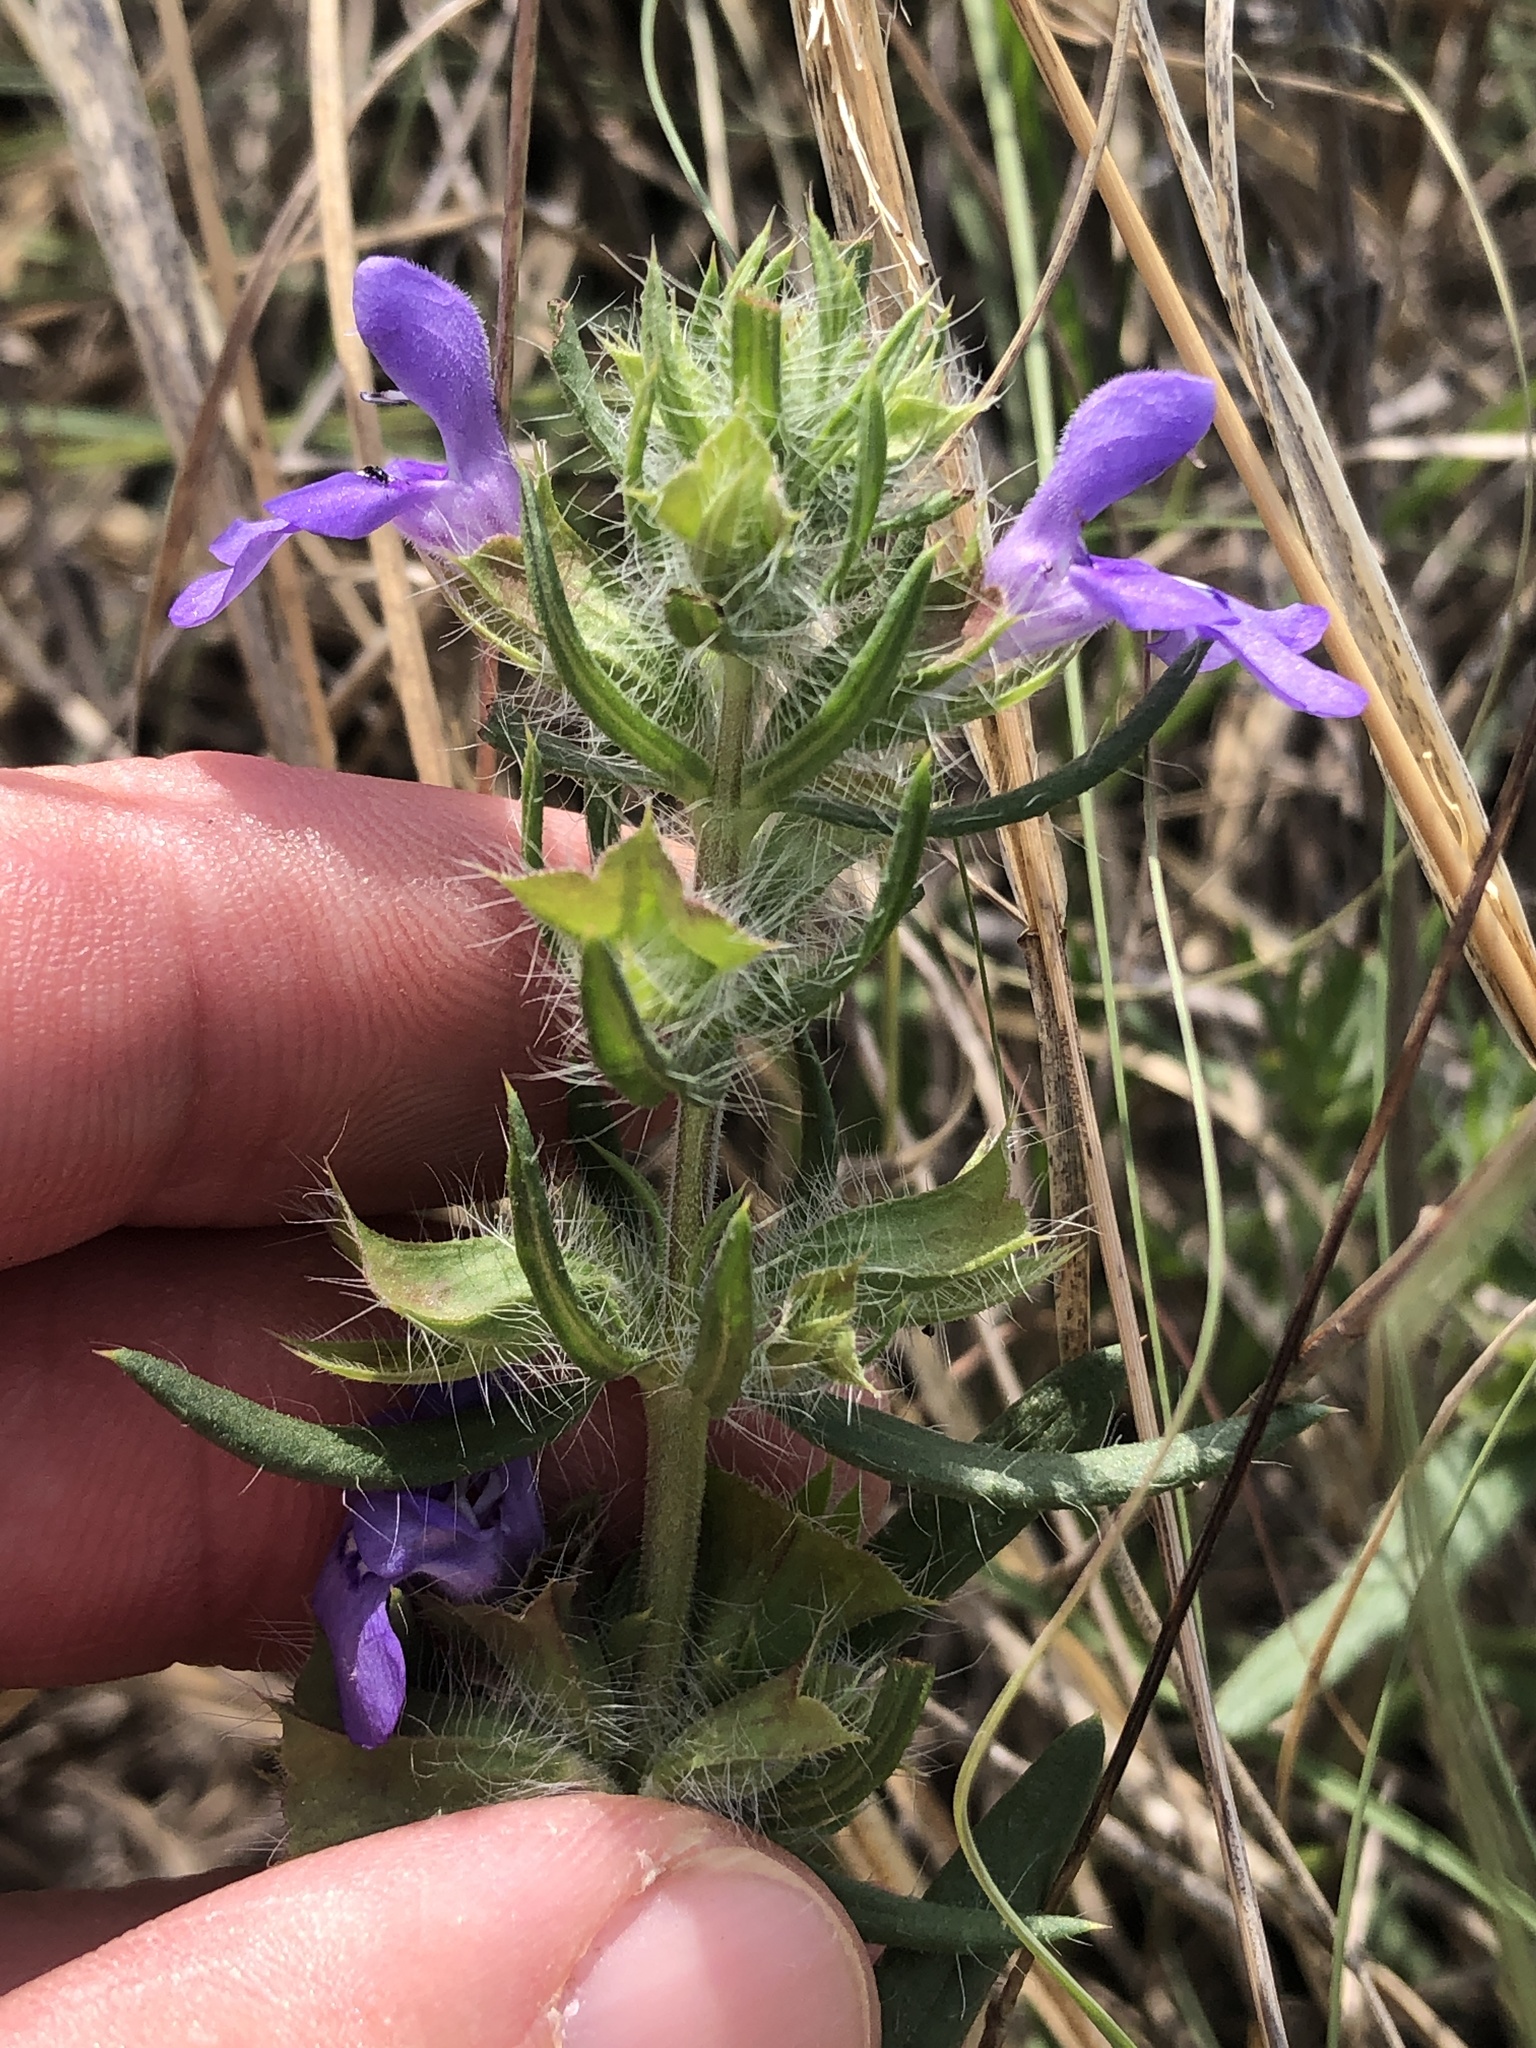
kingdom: Plantae
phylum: Tracheophyta
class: Magnoliopsida
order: Lamiales
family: Lamiaceae
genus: Salvia
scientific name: Salvia texana
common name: Texas sage
